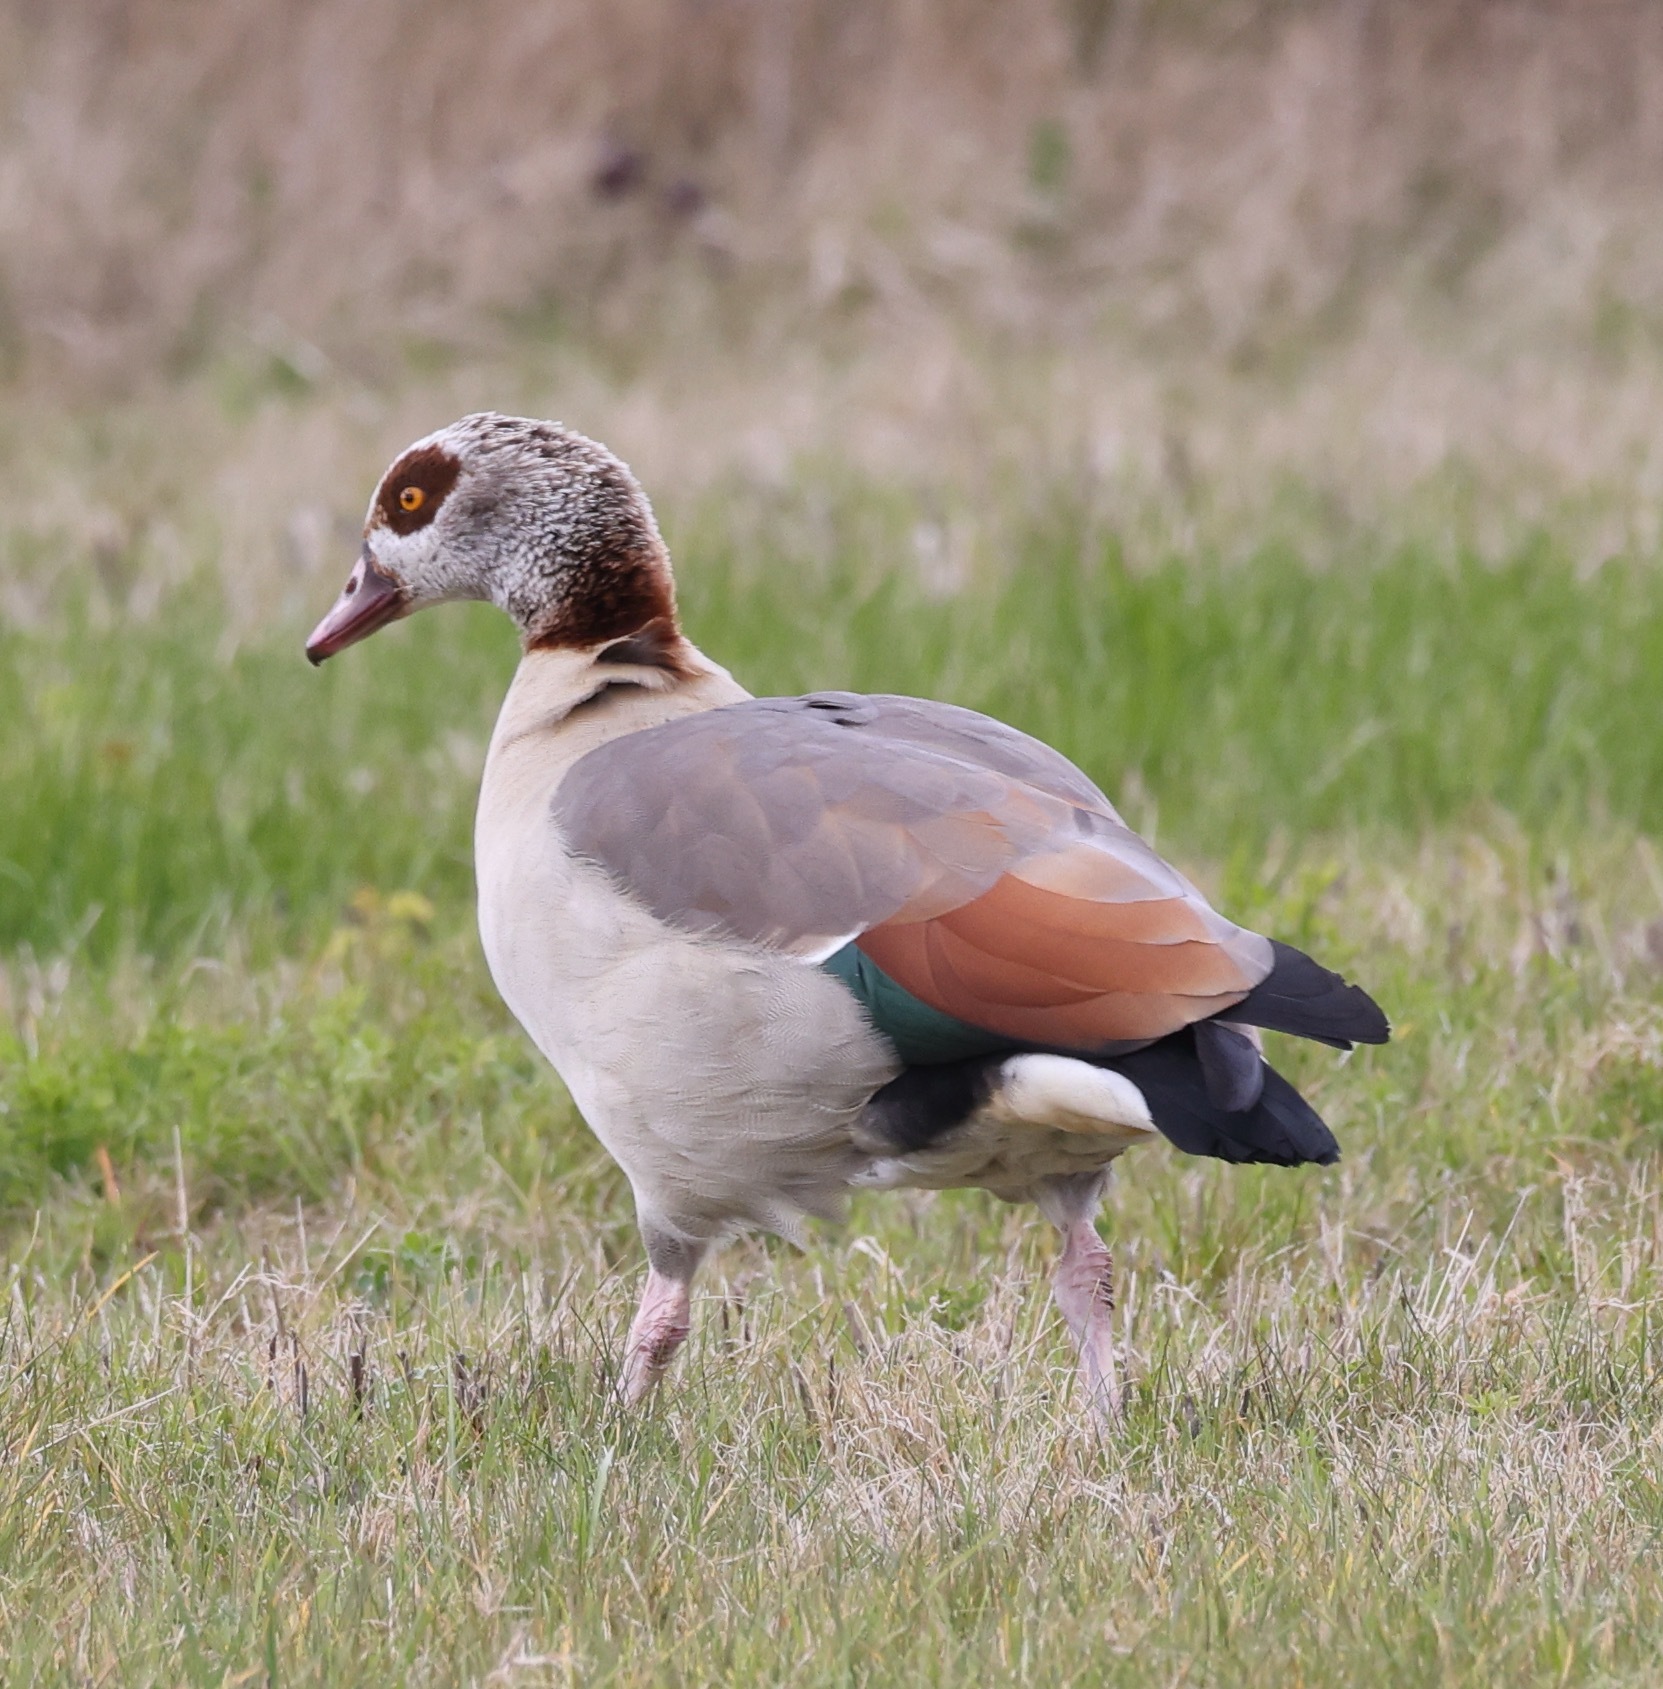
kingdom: Animalia
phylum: Chordata
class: Aves
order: Anseriformes
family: Anatidae
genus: Alopochen
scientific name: Alopochen aegyptiaca
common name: Egyptian goose
